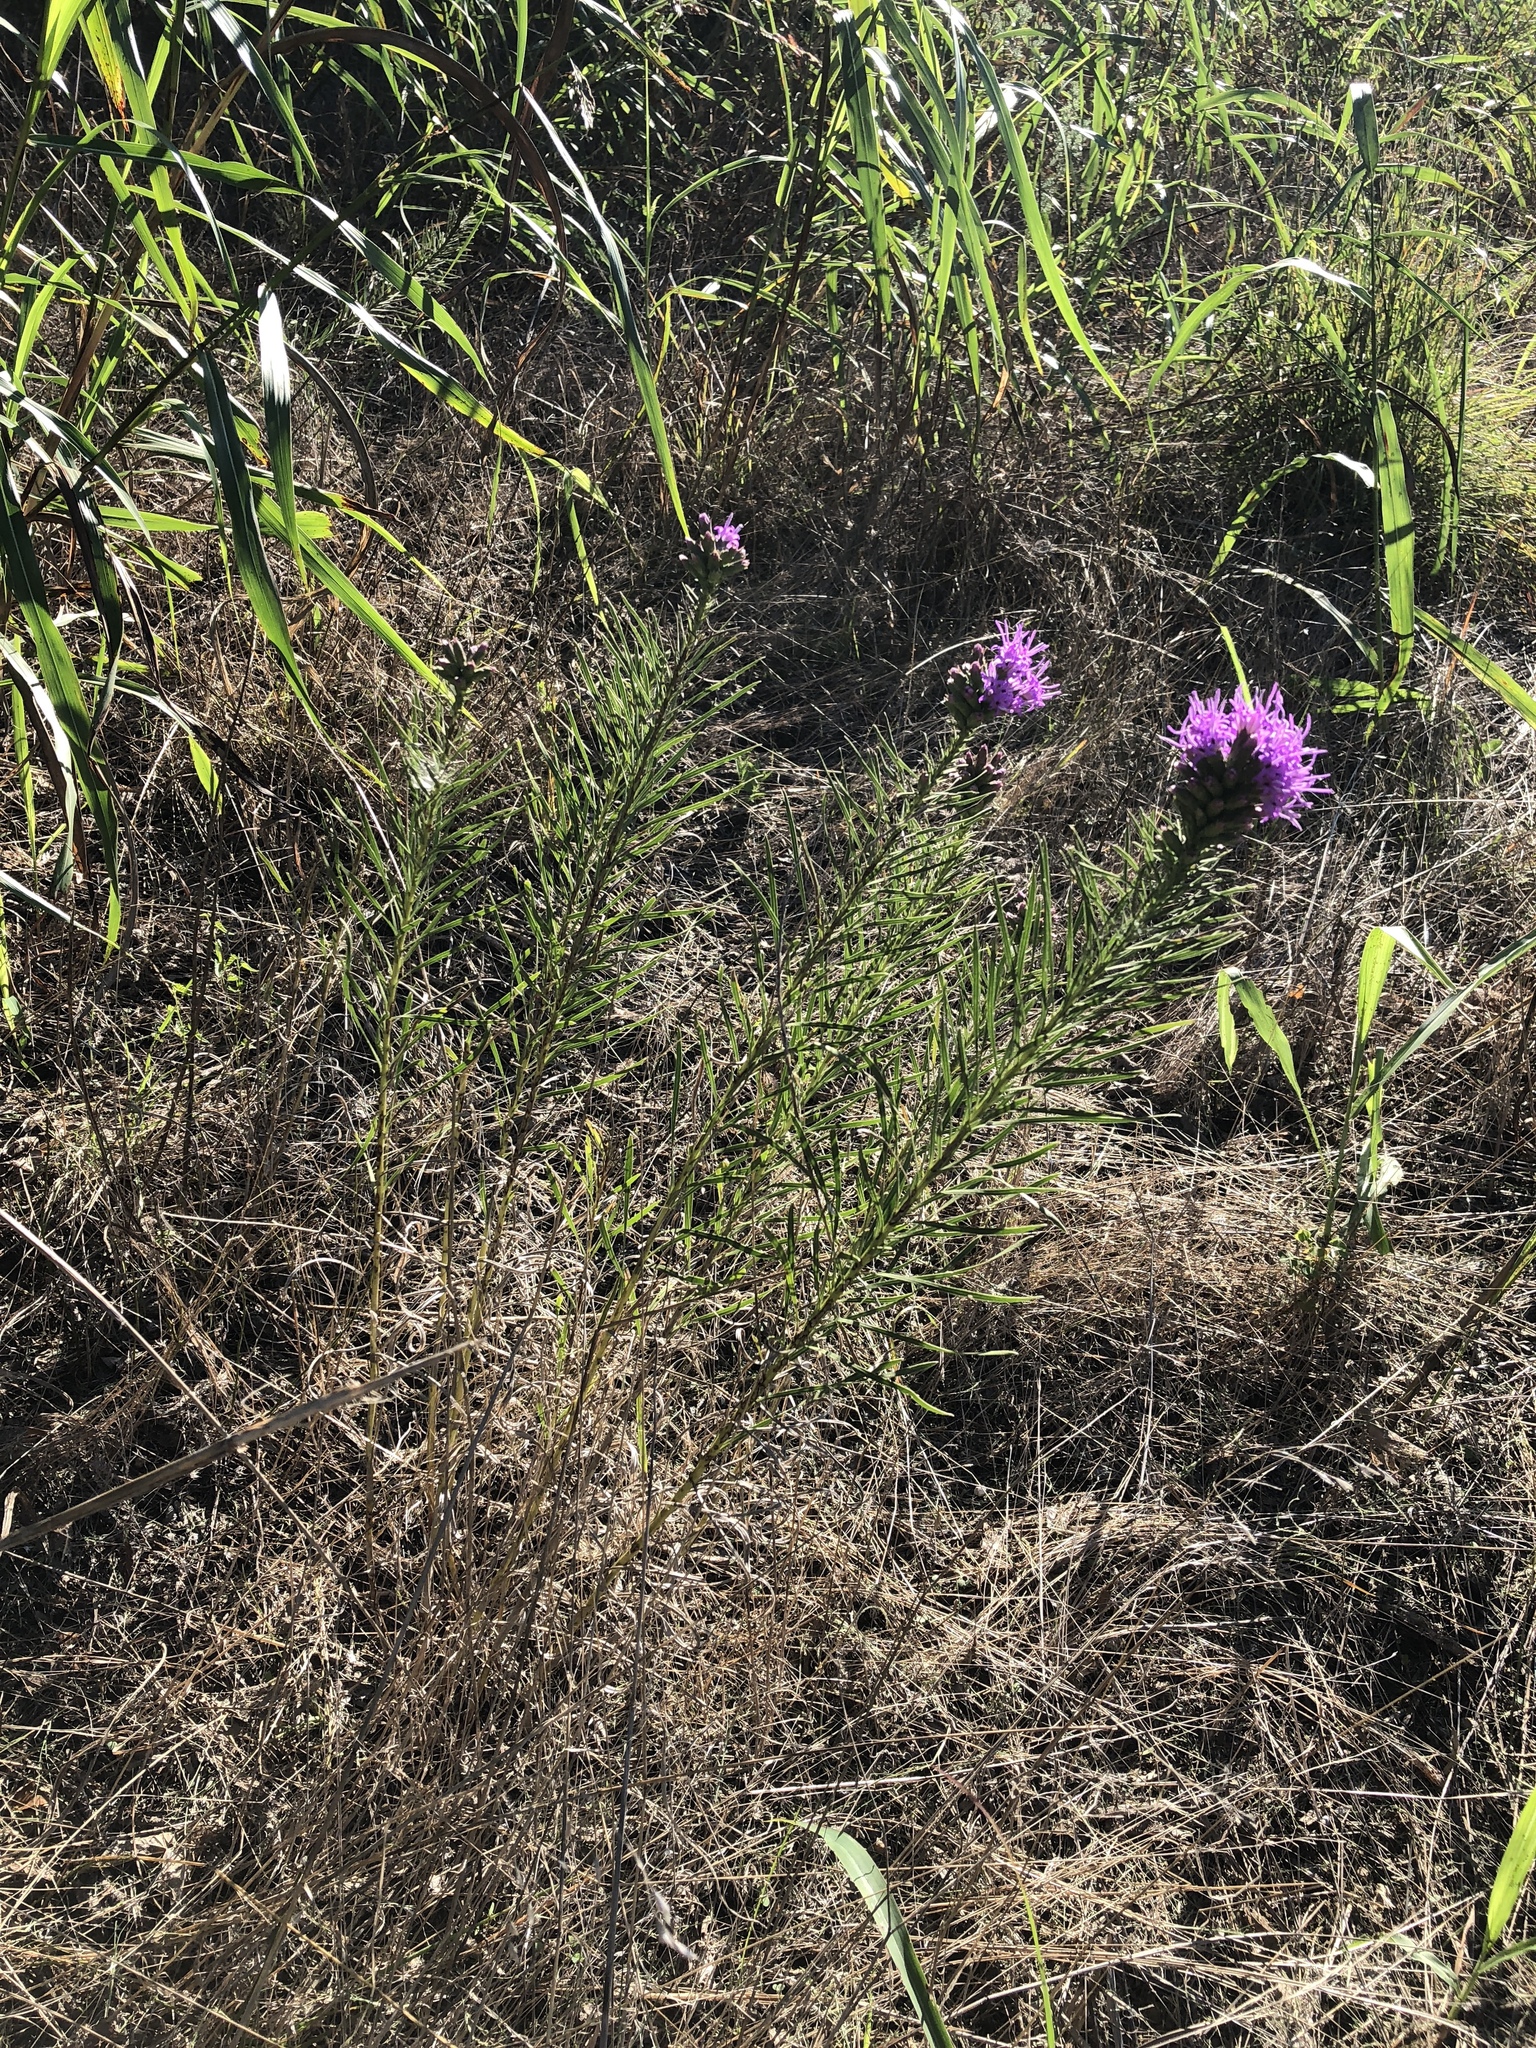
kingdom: Plantae
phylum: Tracheophyta
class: Magnoliopsida
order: Asterales
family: Asteraceae
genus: Liatris
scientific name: Liatris punctata
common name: Dotted gayfeather
